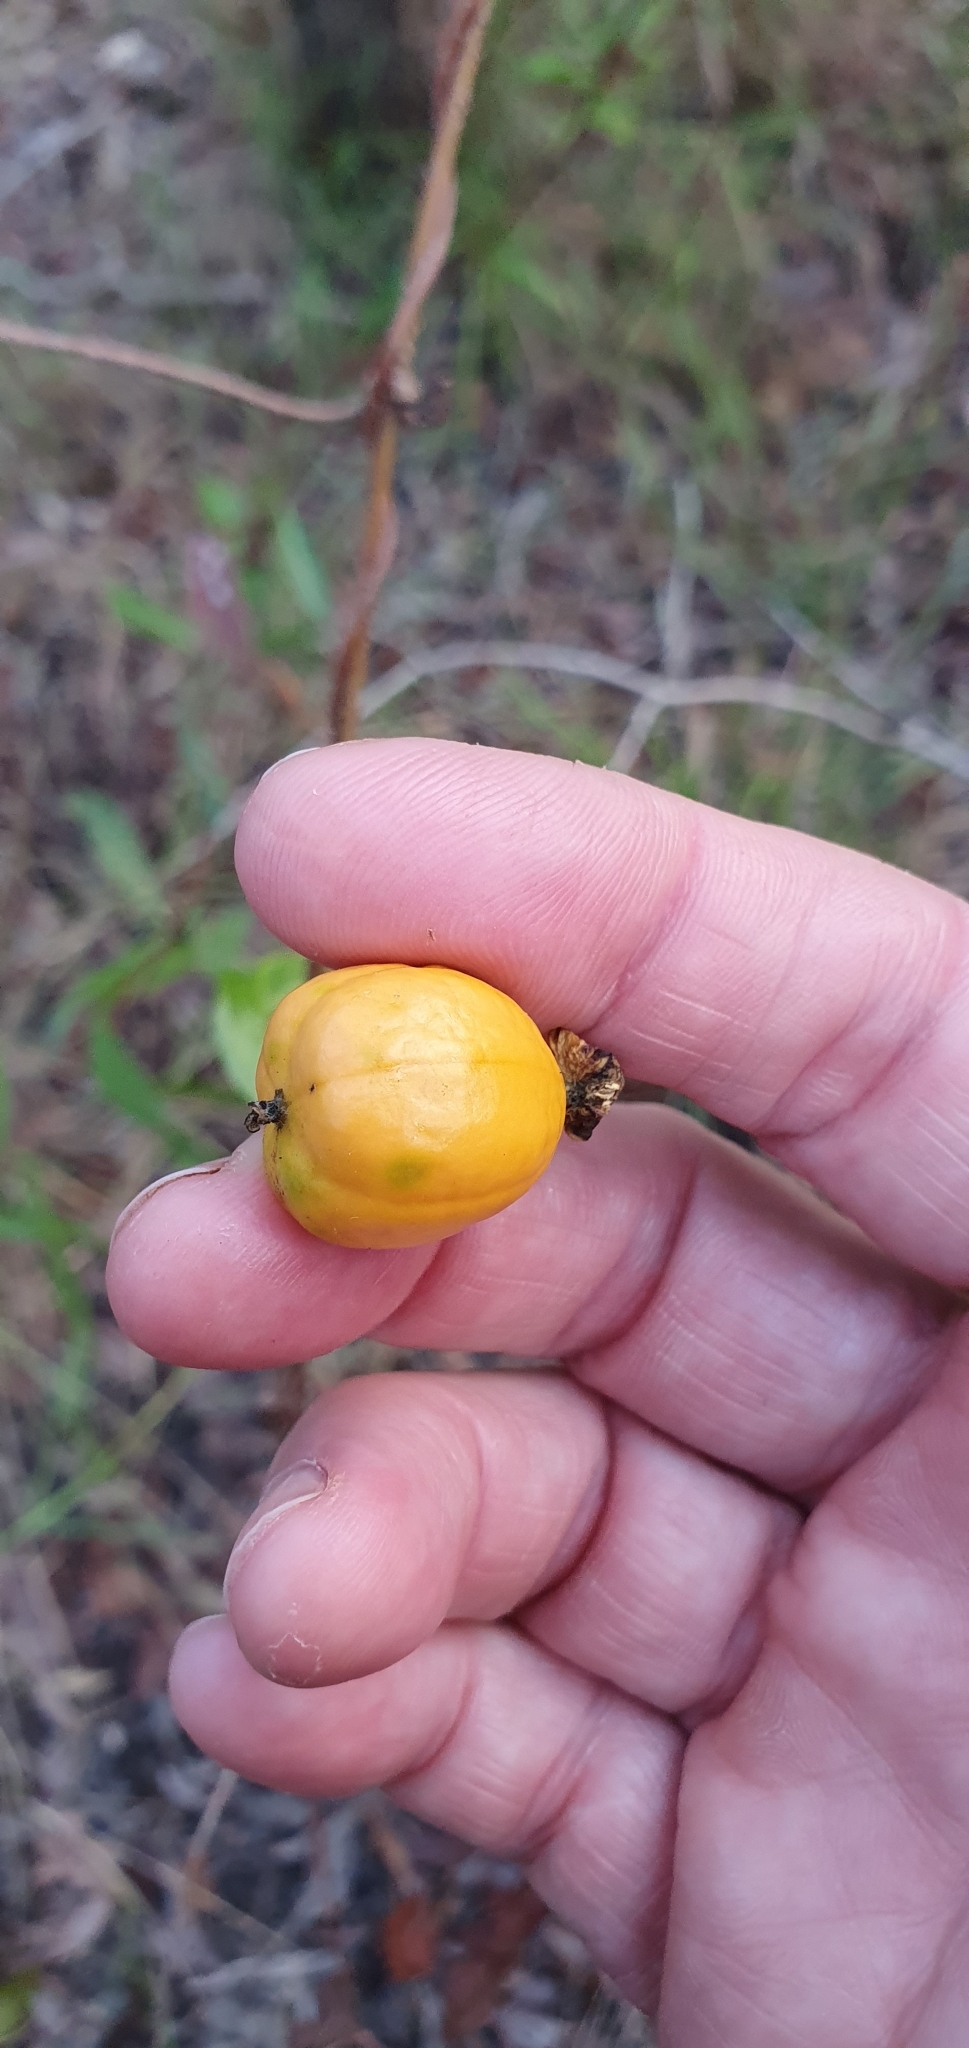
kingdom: Plantae
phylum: Tracheophyta
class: Magnoliopsida
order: Malpighiales
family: Passifloraceae
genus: Passiflora
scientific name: Passiflora foetida
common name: Fetid passionflower
